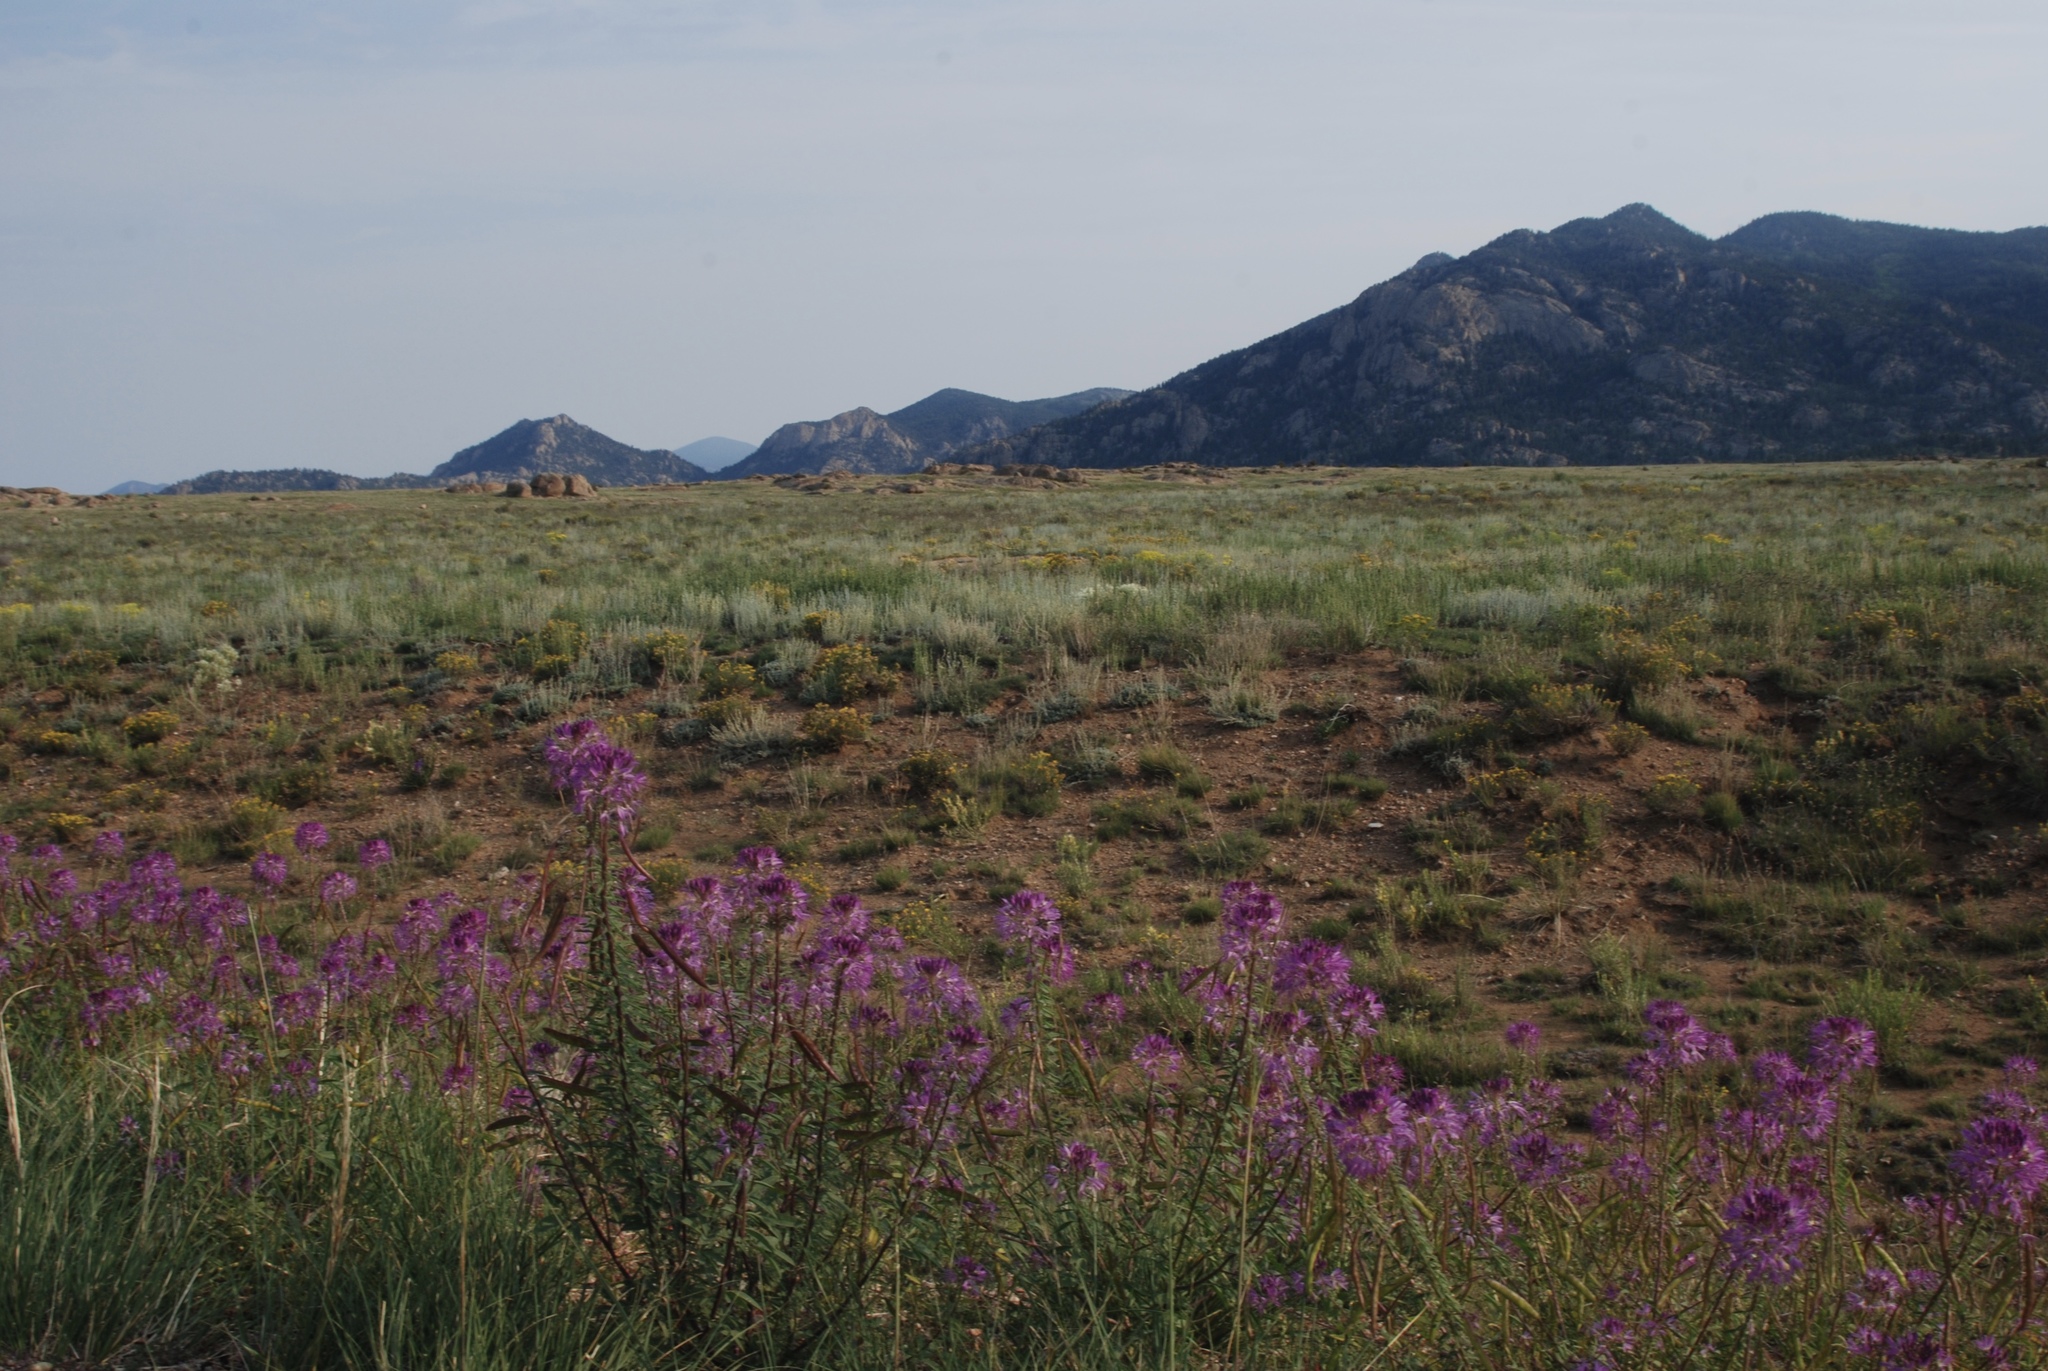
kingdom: Plantae
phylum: Tracheophyta
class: Magnoliopsida
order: Brassicales
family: Cleomaceae
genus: Cleomella
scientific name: Cleomella serrulata
